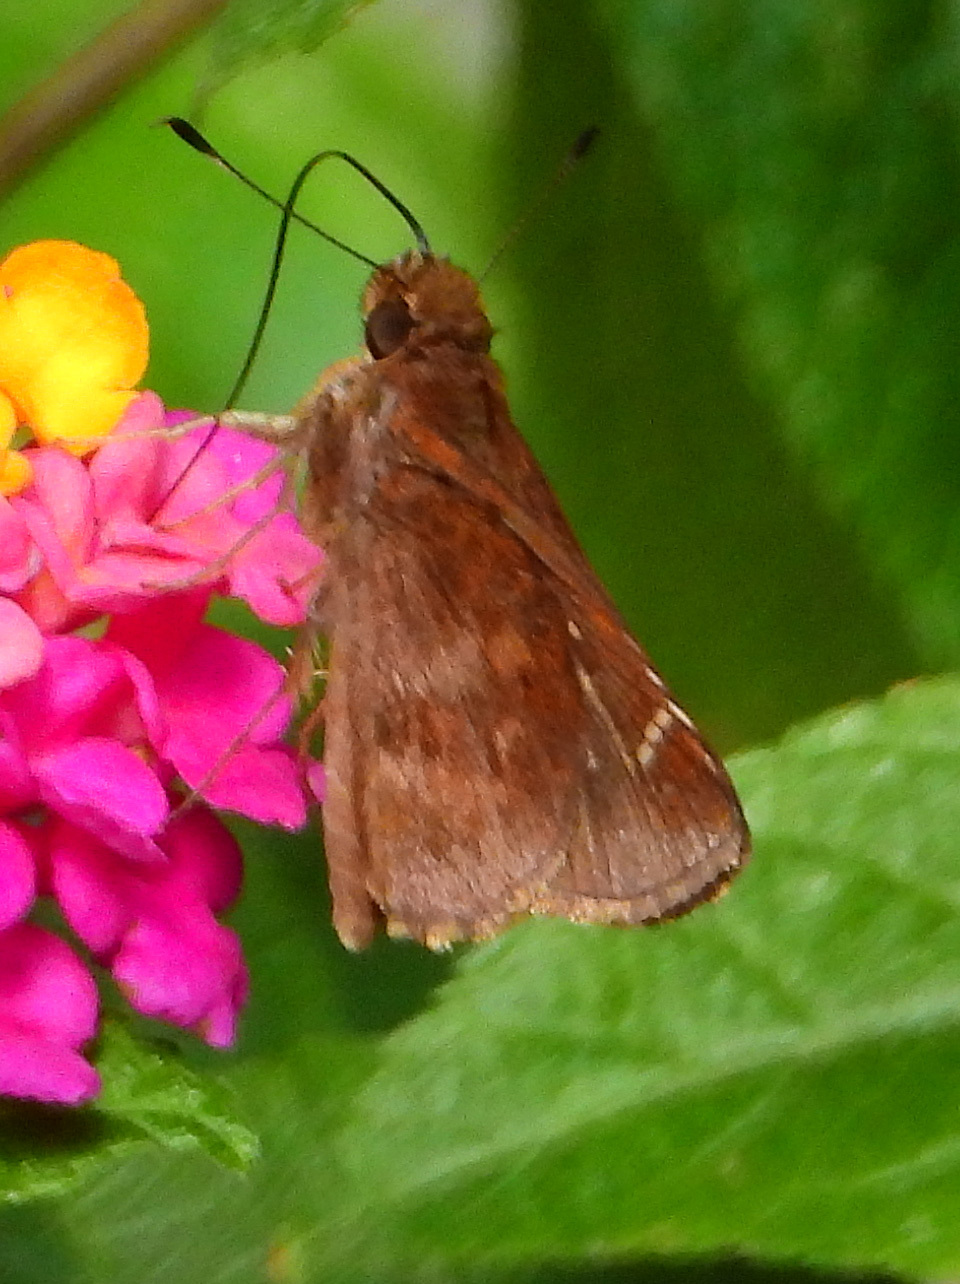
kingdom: Animalia
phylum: Arthropoda
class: Insecta
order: Lepidoptera
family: Hesperiidae
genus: Lerema
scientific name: Lerema accius
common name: Clouded skipper
